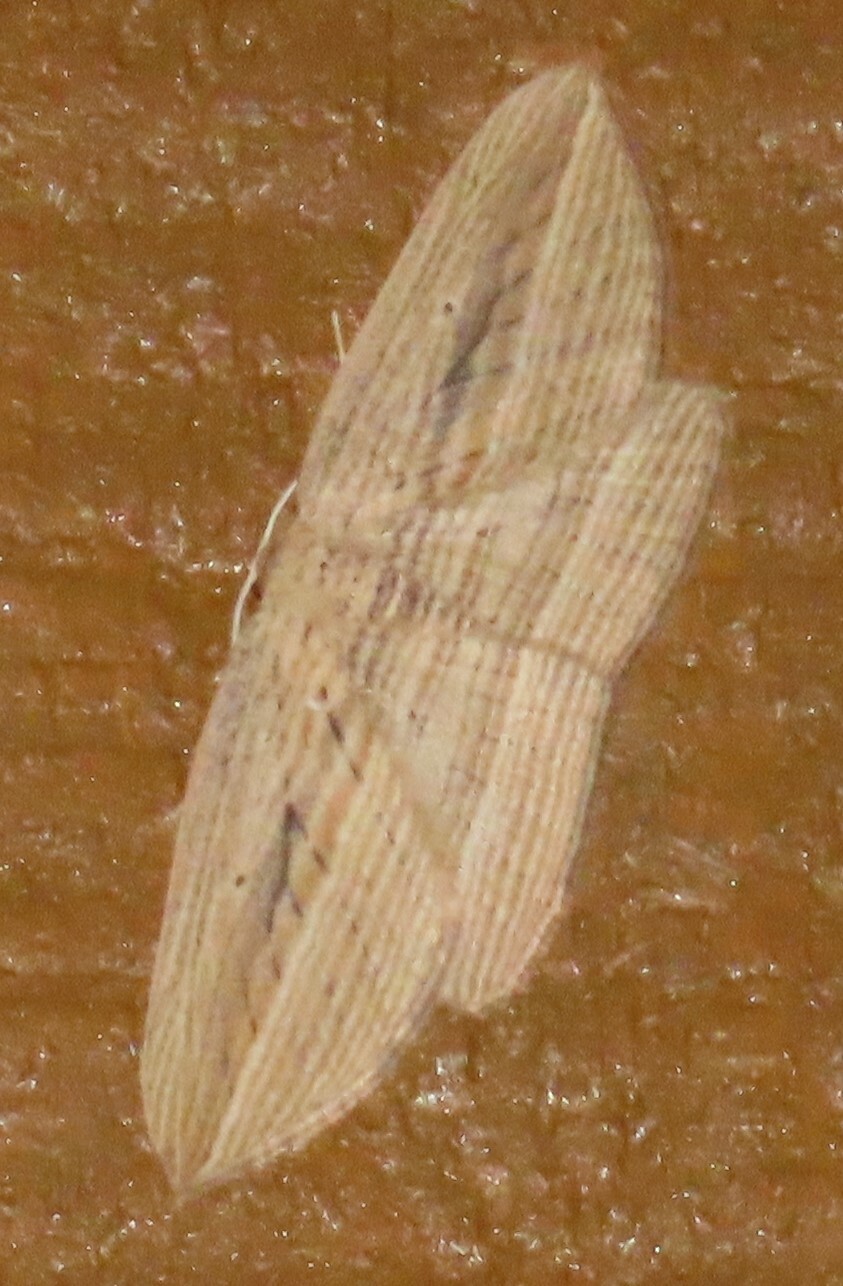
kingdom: Animalia
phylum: Arthropoda
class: Insecta
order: Lepidoptera
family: Geometridae
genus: Epiphryne
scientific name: Epiphryne verriculata
